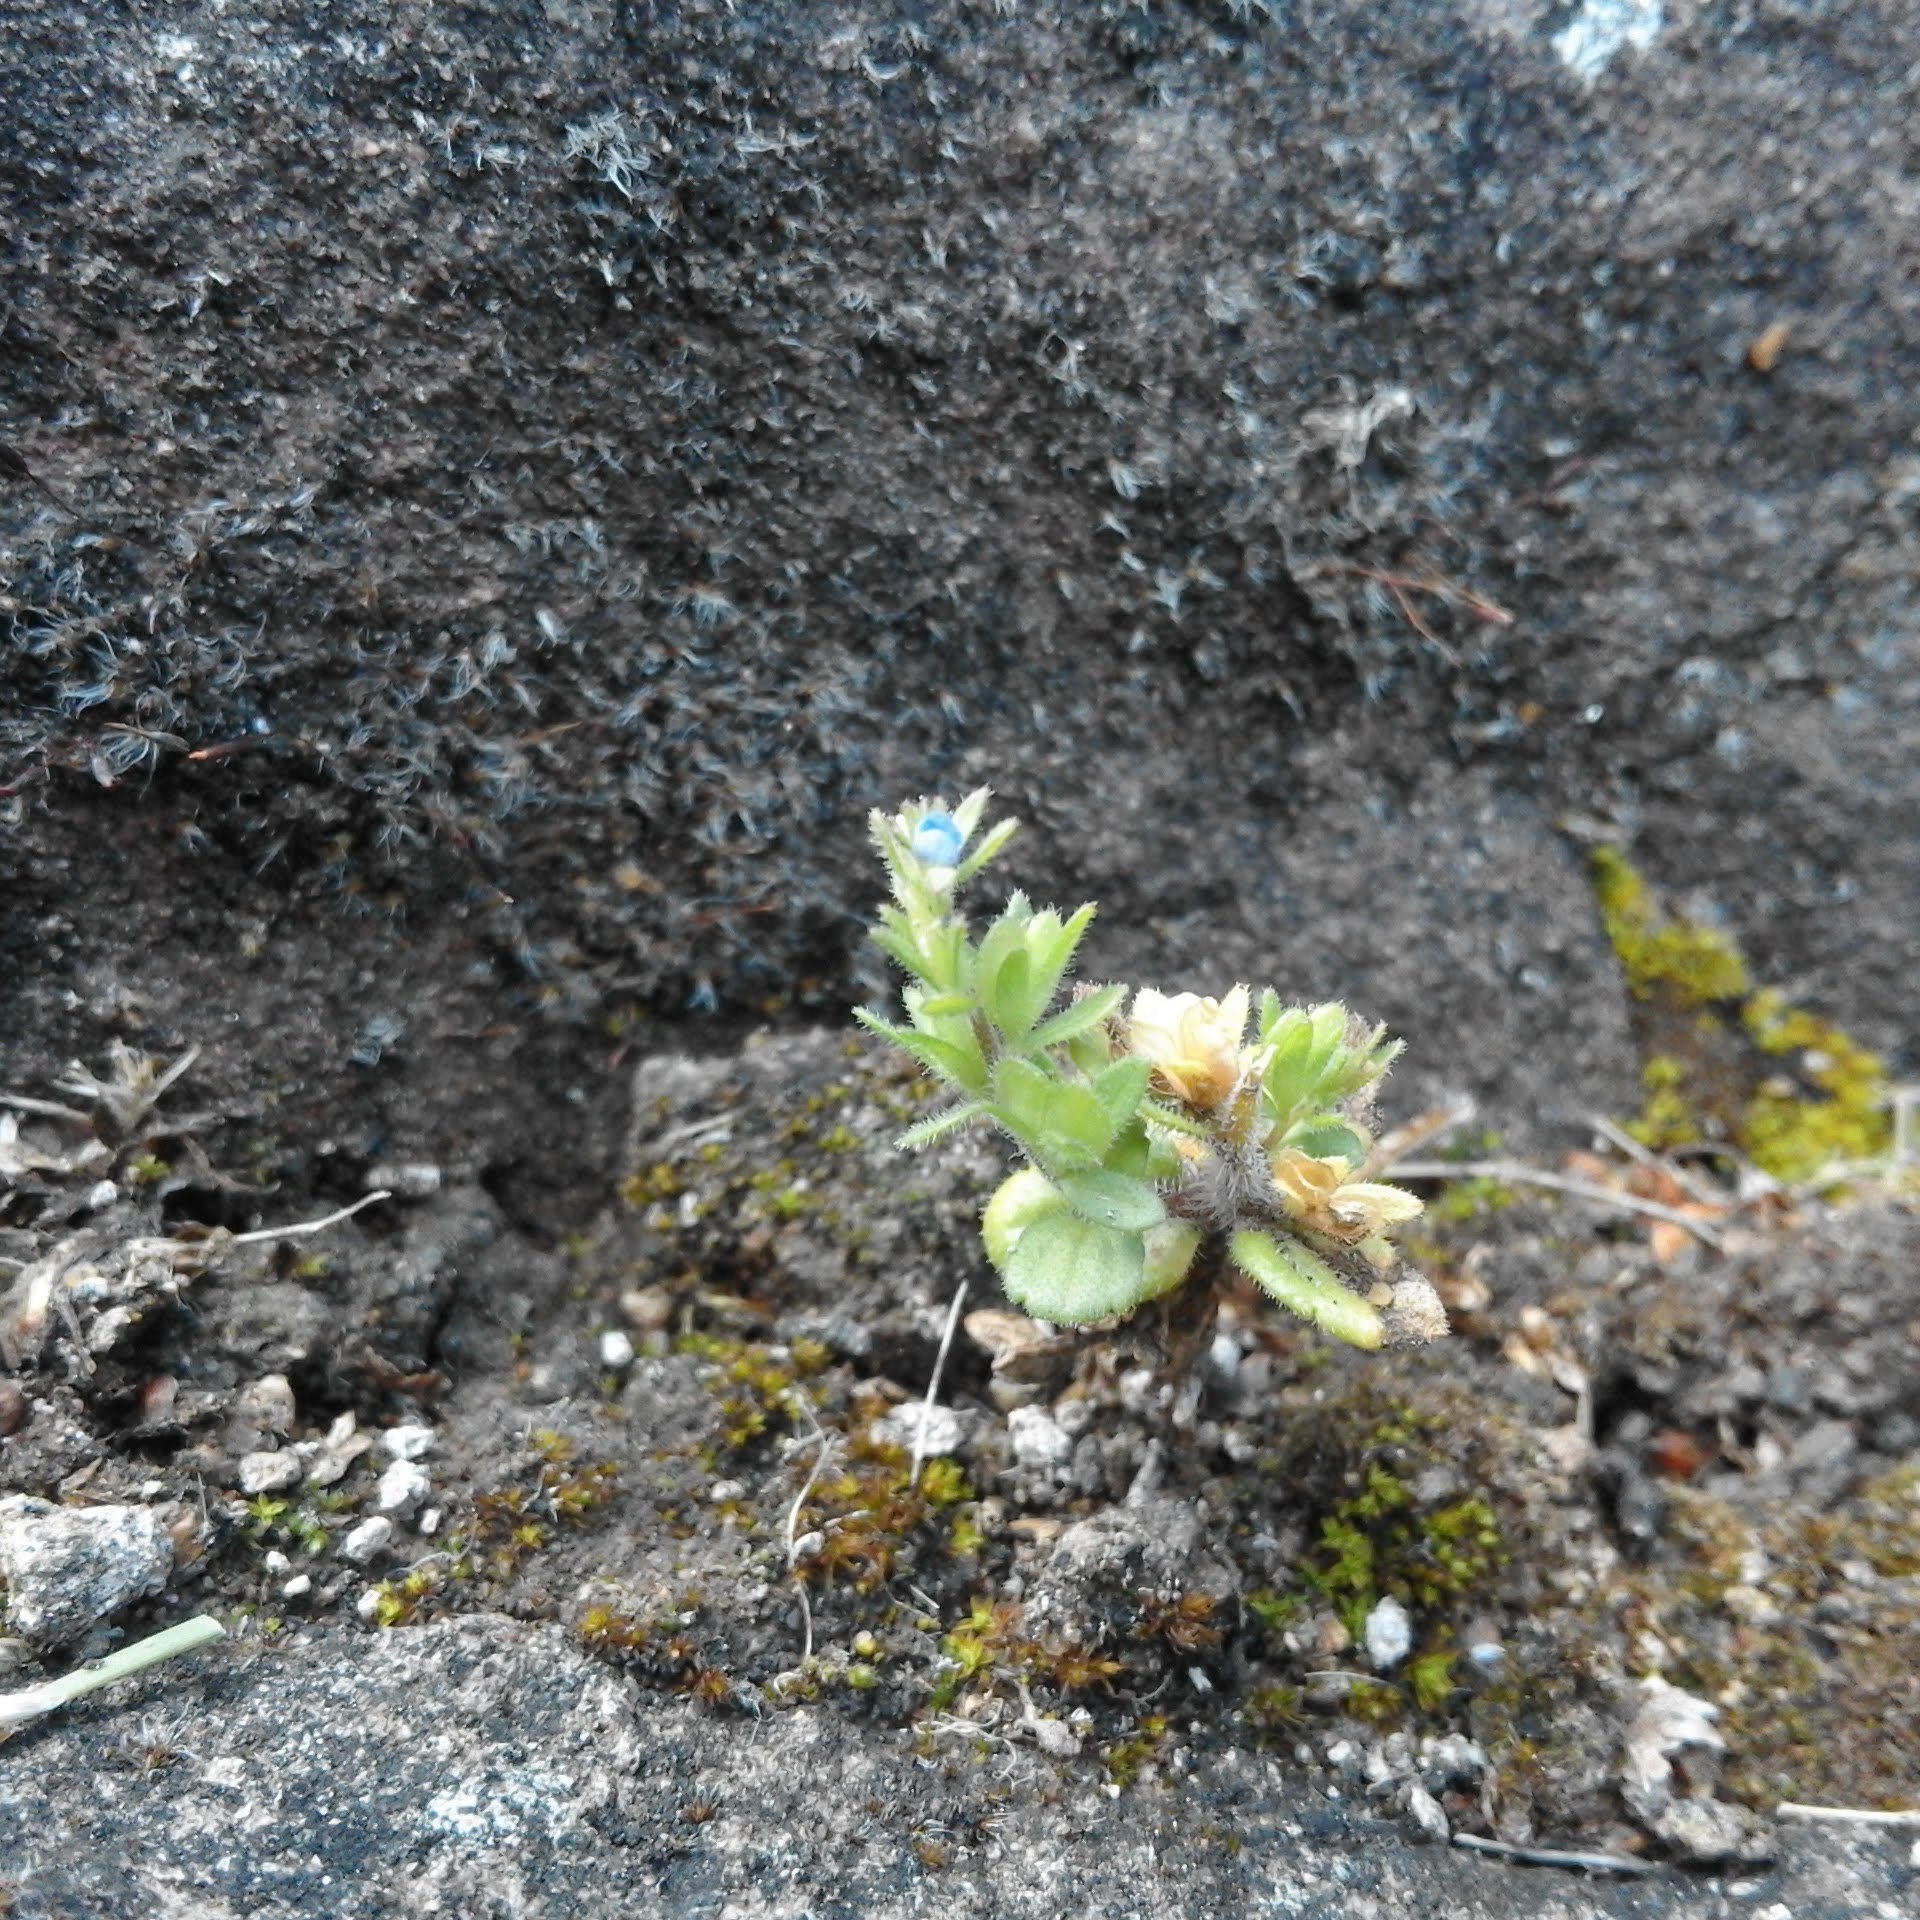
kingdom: Plantae
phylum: Tracheophyta
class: Magnoliopsida
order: Lamiales
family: Plantaginaceae
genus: Veronica
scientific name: Veronica arvensis
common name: Corn speedwell
